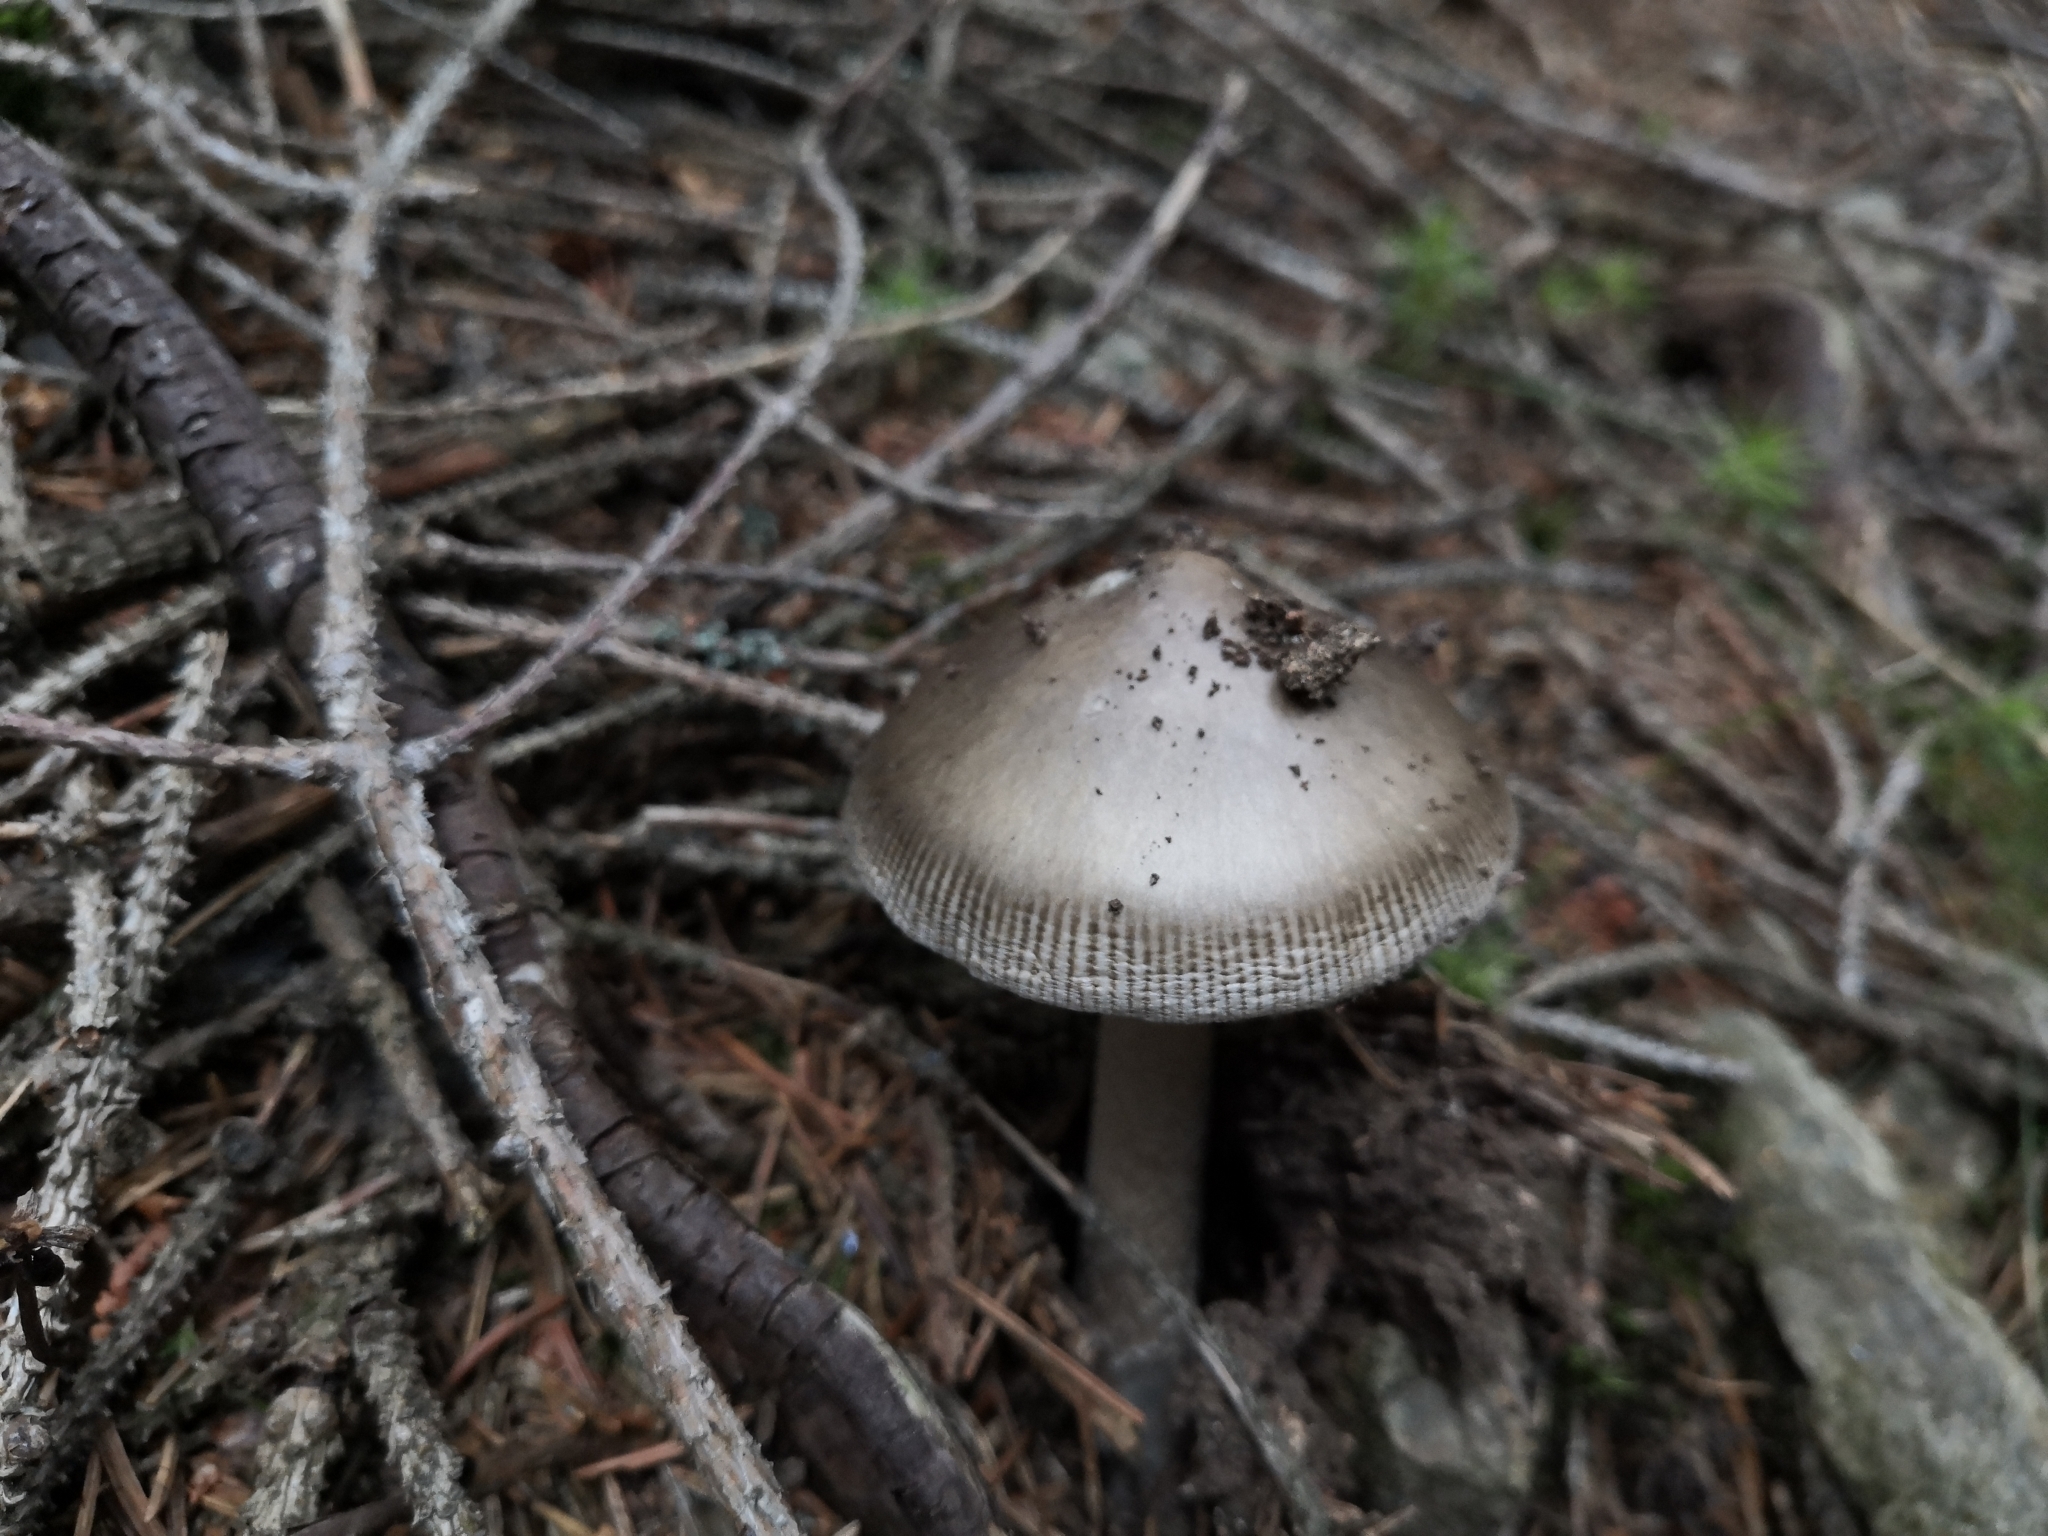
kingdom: Fungi
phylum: Basidiomycota
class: Agaricomycetes
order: Agaricales
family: Amanitaceae
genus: Amanita
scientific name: Amanita submembranacea
